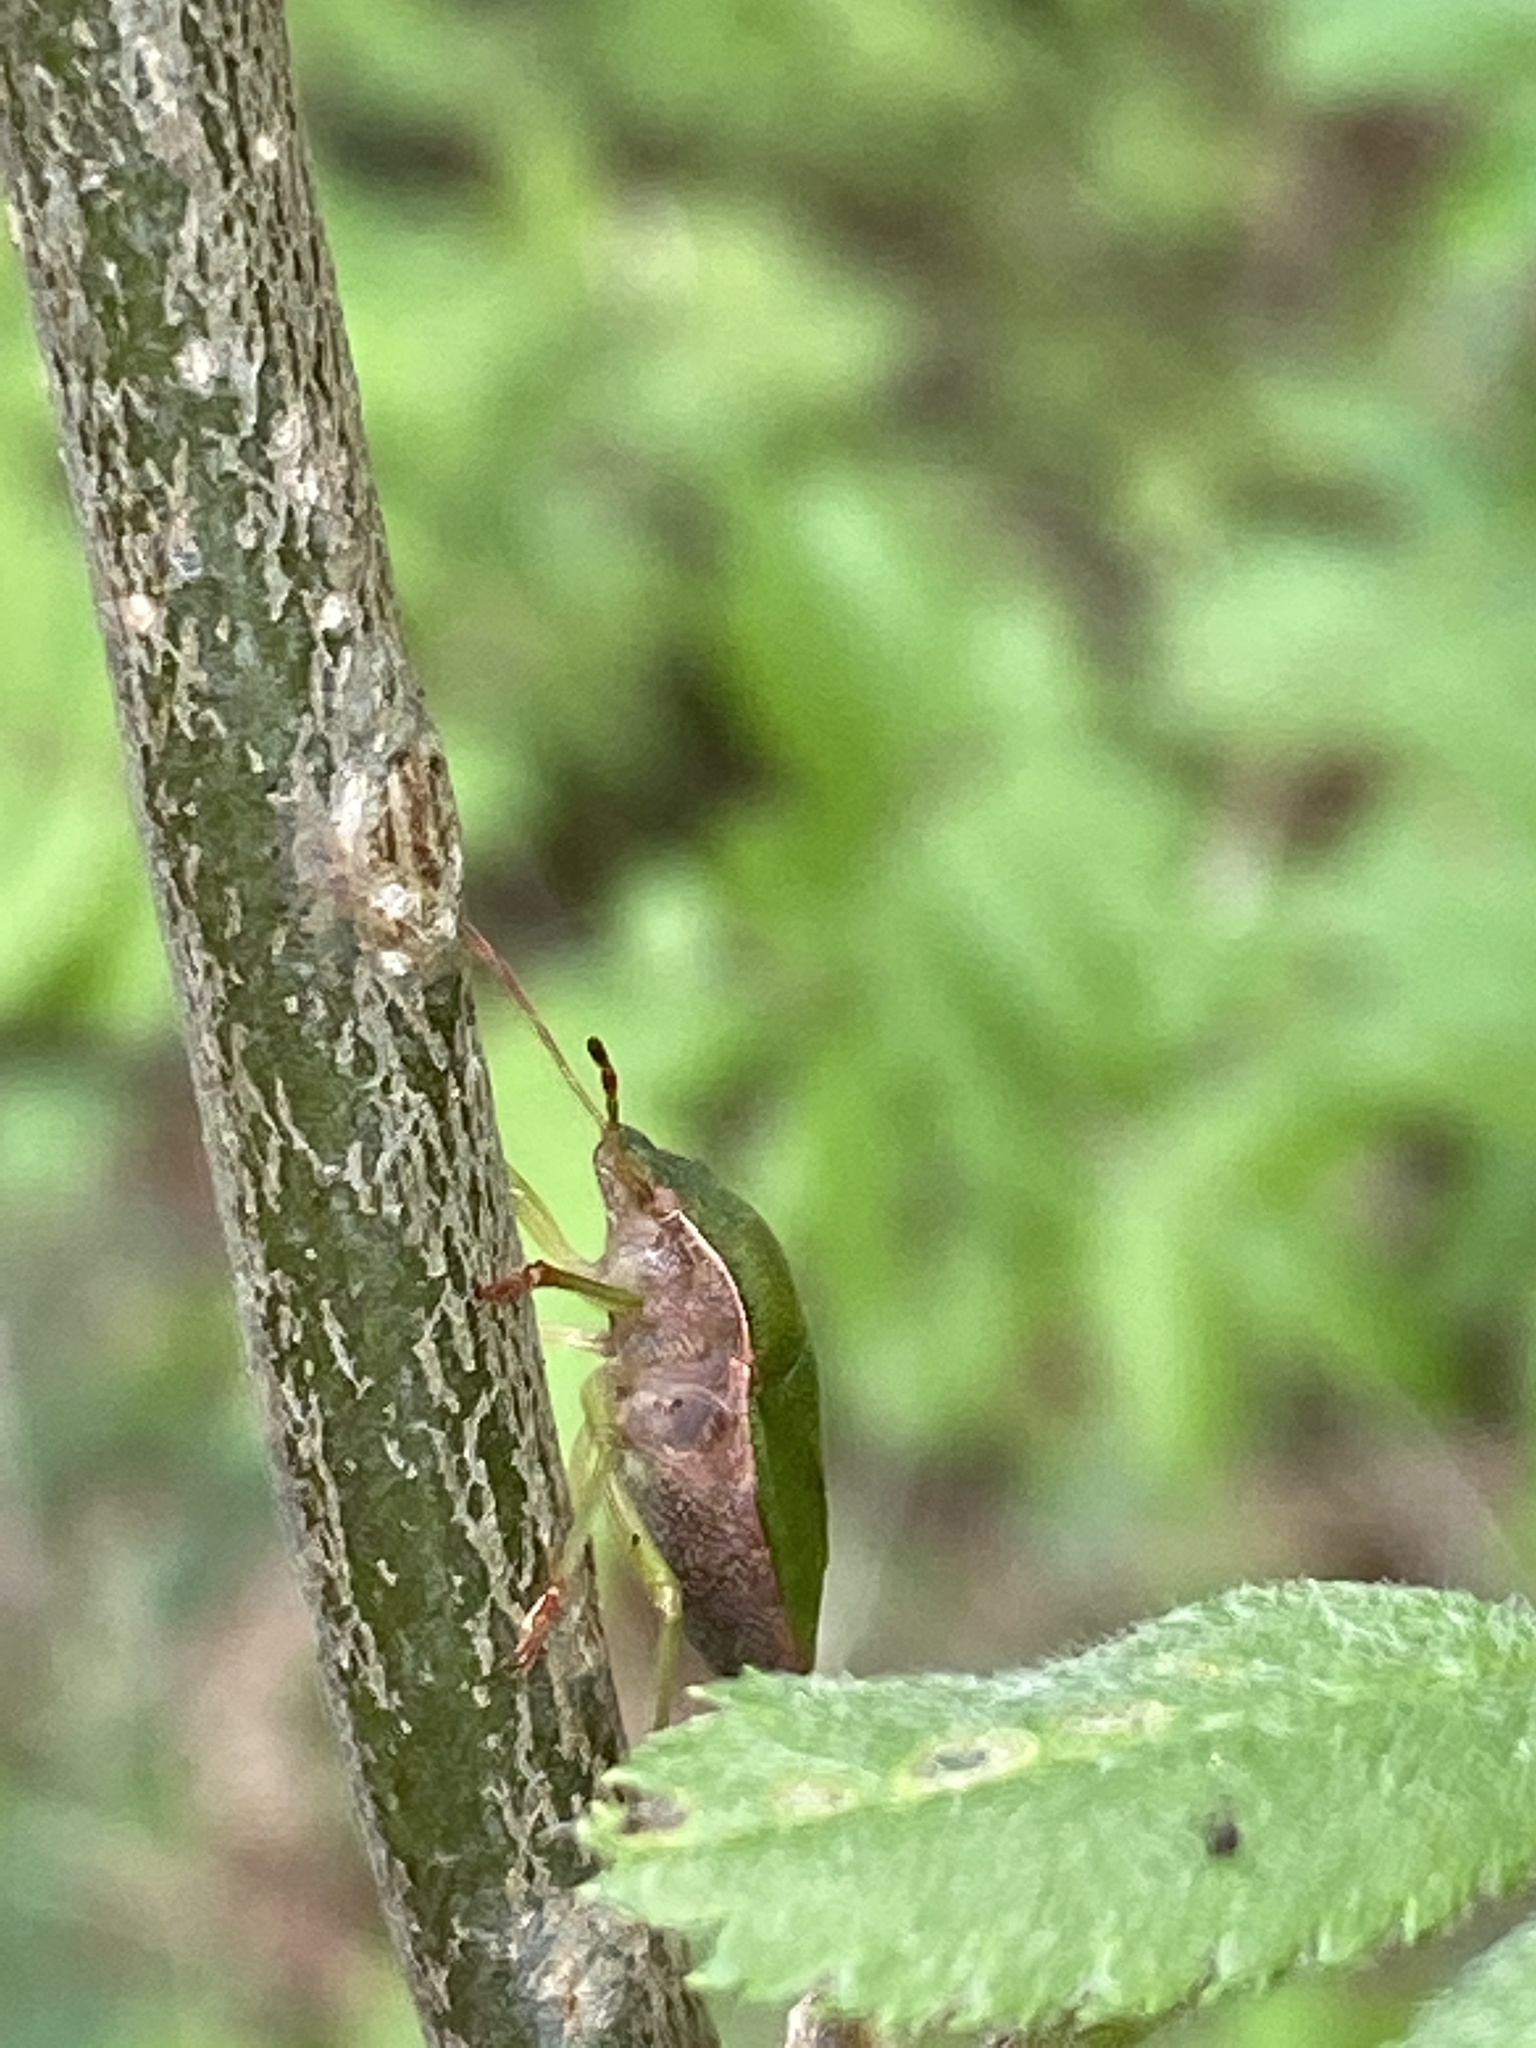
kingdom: Animalia
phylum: Arthropoda
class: Insecta
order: Hemiptera
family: Pentatomidae
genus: Palomena
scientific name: Palomena prasina
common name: Green shieldbug
